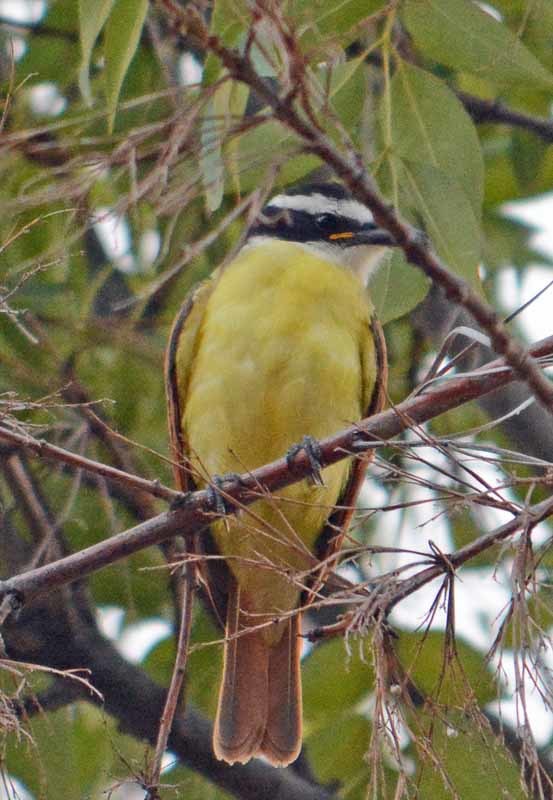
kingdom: Animalia
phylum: Chordata
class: Aves
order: Passeriformes
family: Tyrannidae
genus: Pitangus
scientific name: Pitangus sulphuratus
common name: Great kiskadee
